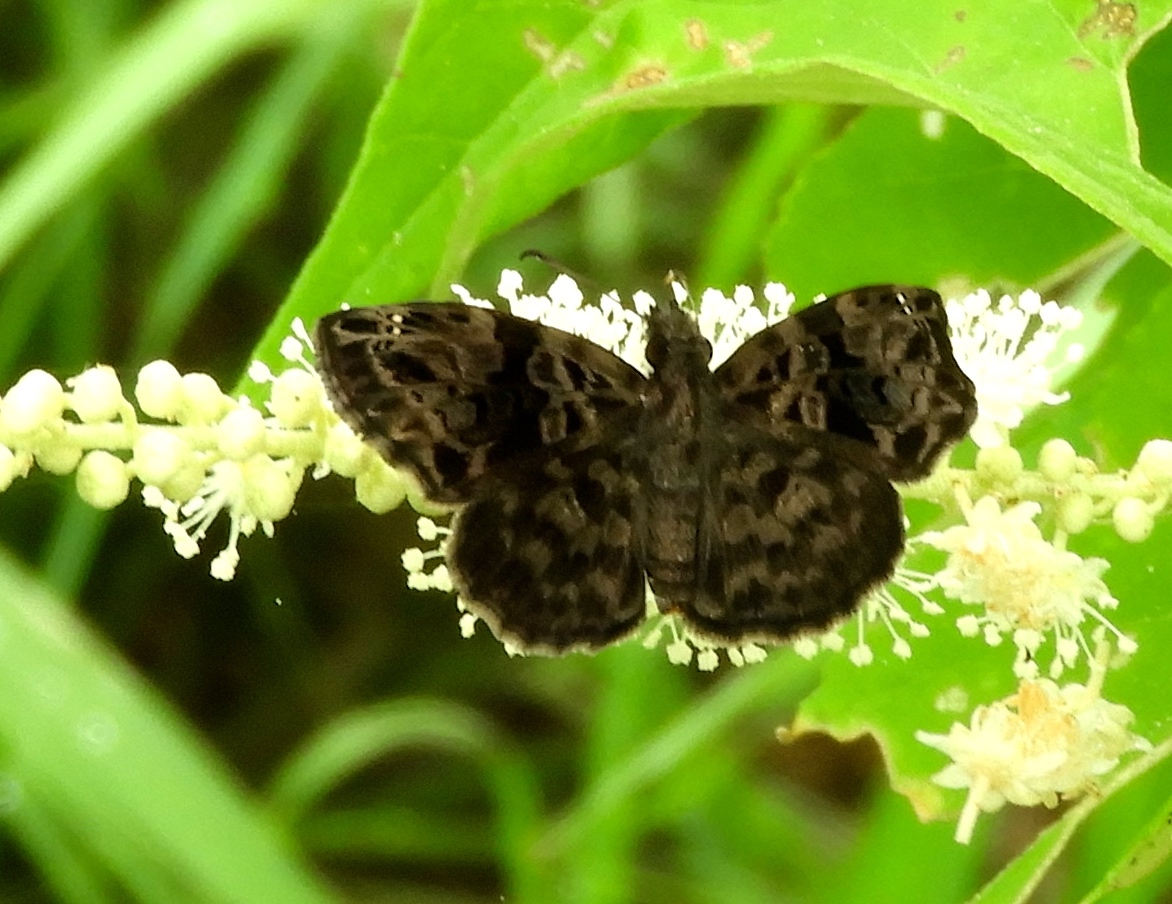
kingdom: Animalia
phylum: Arthropoda
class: Insecta
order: Lepidoptera
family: Hesperiidae
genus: Gorgythion
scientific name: Gorgythion begga
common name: Variegated skipper
